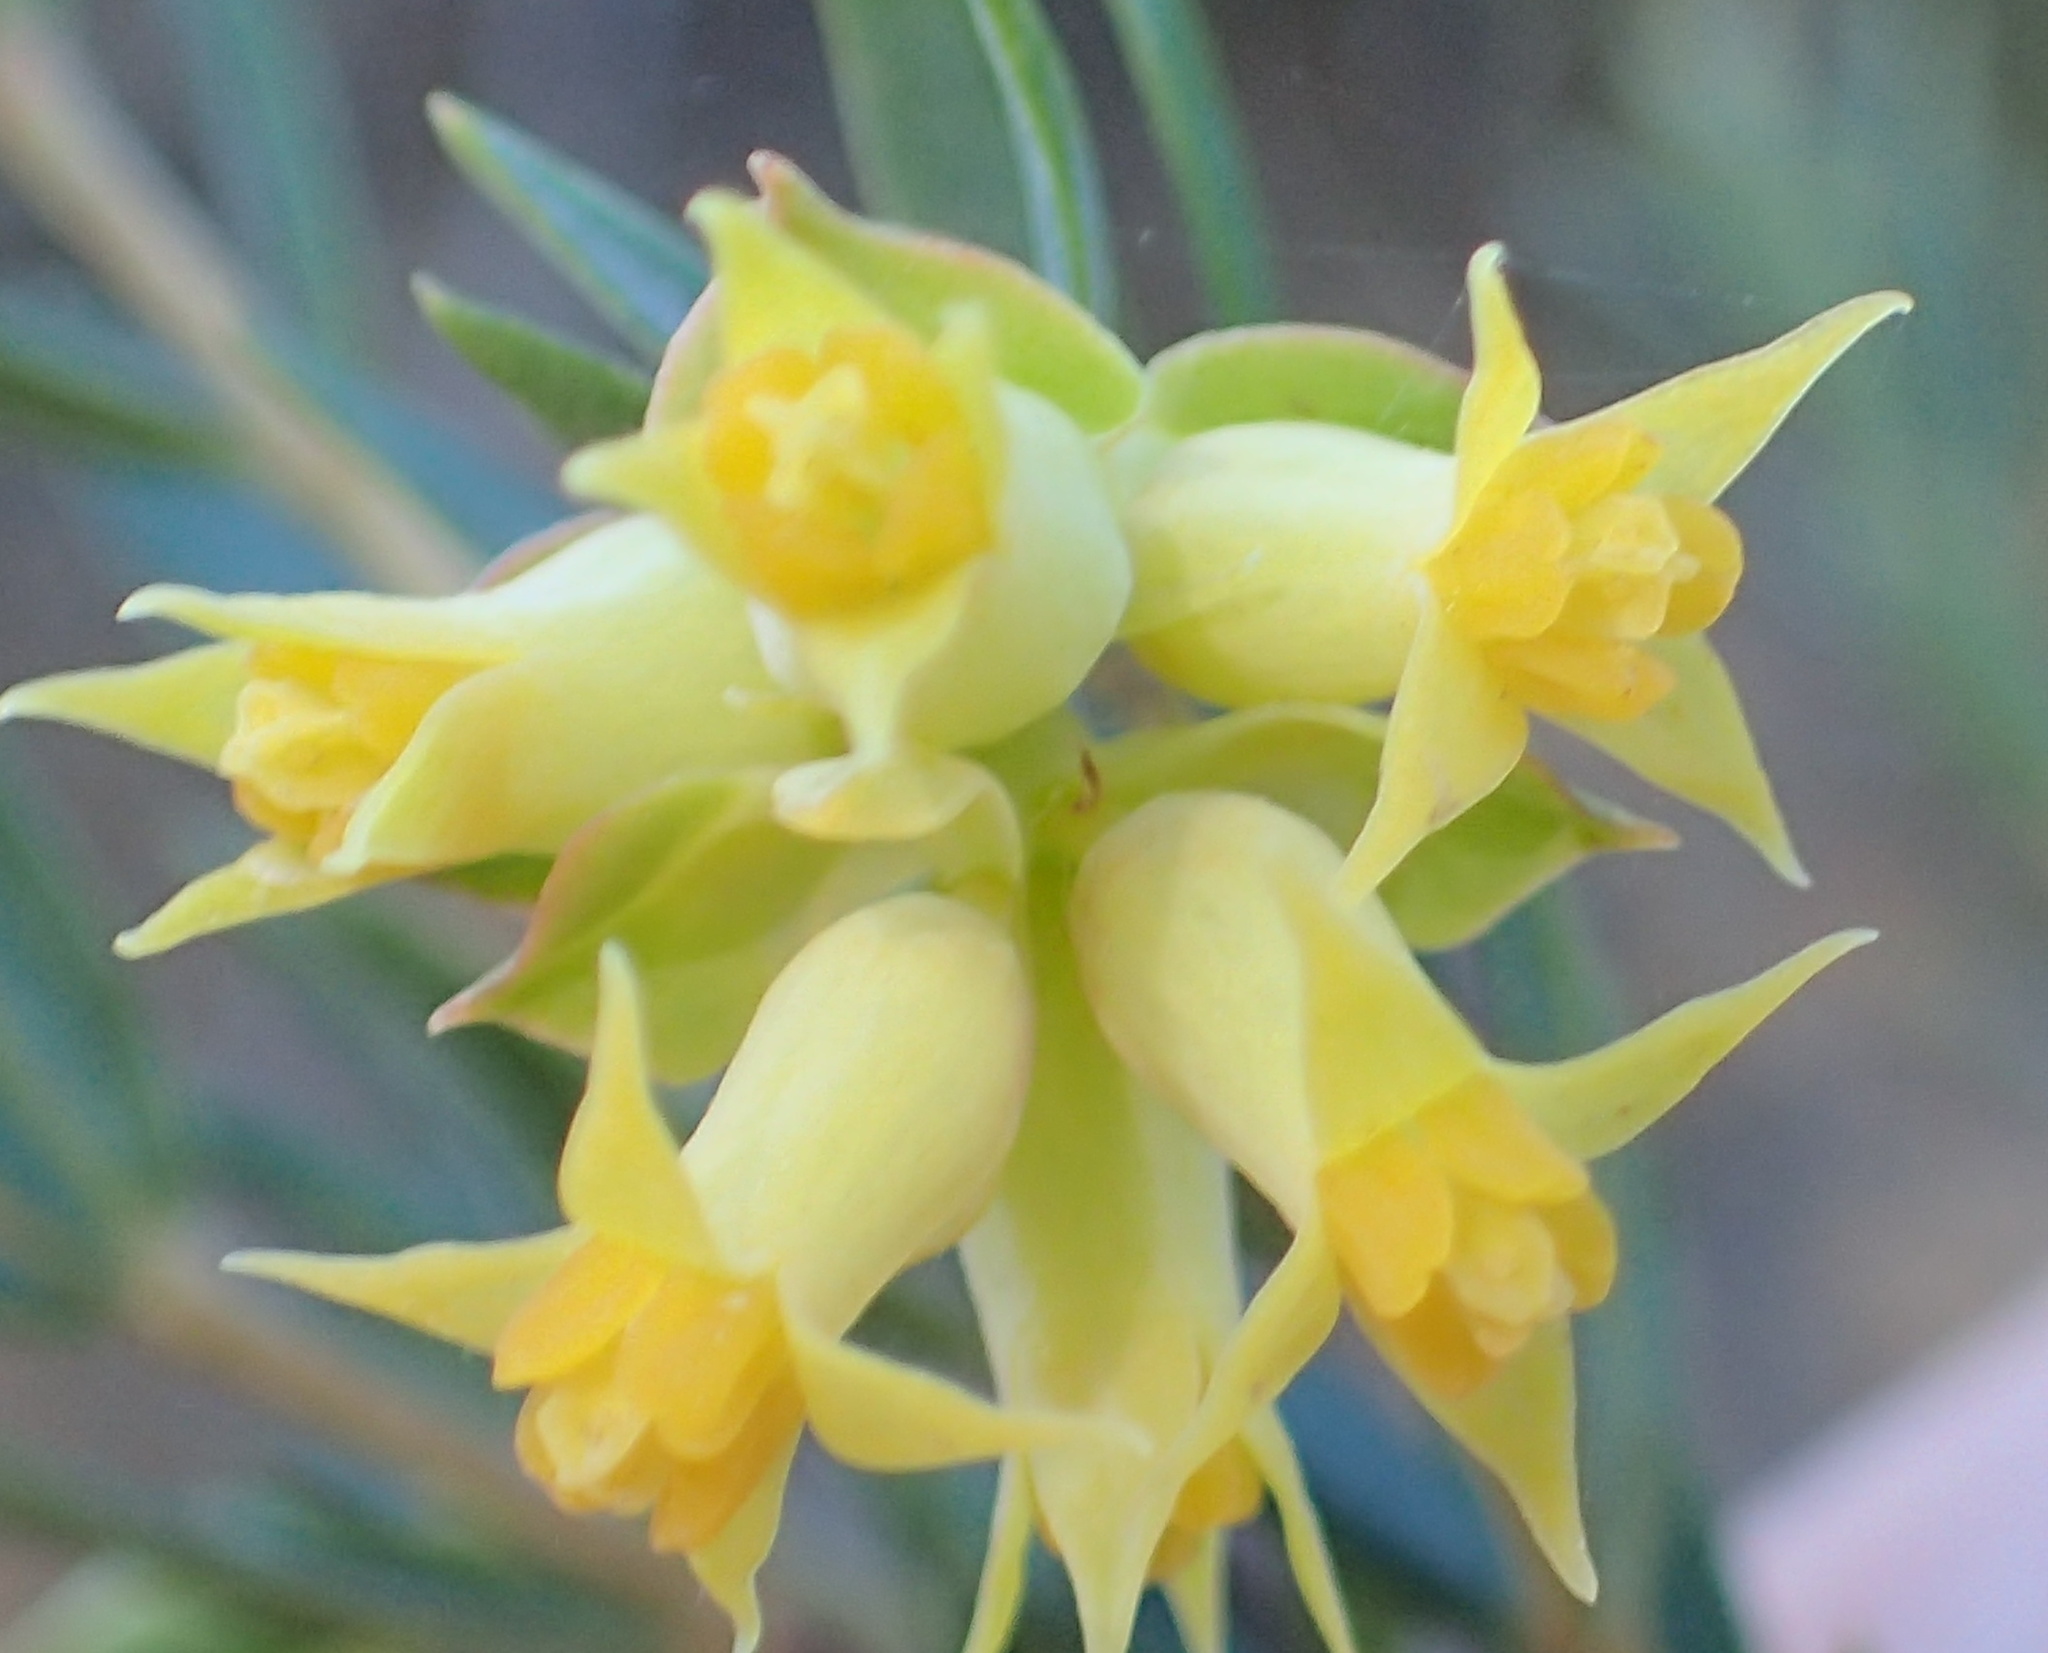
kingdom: Plantae
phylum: Tracheophyta
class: Magnoliopsida
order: Myrtales
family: Penaeaceae
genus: Penaea
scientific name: Penaea acutifolia
